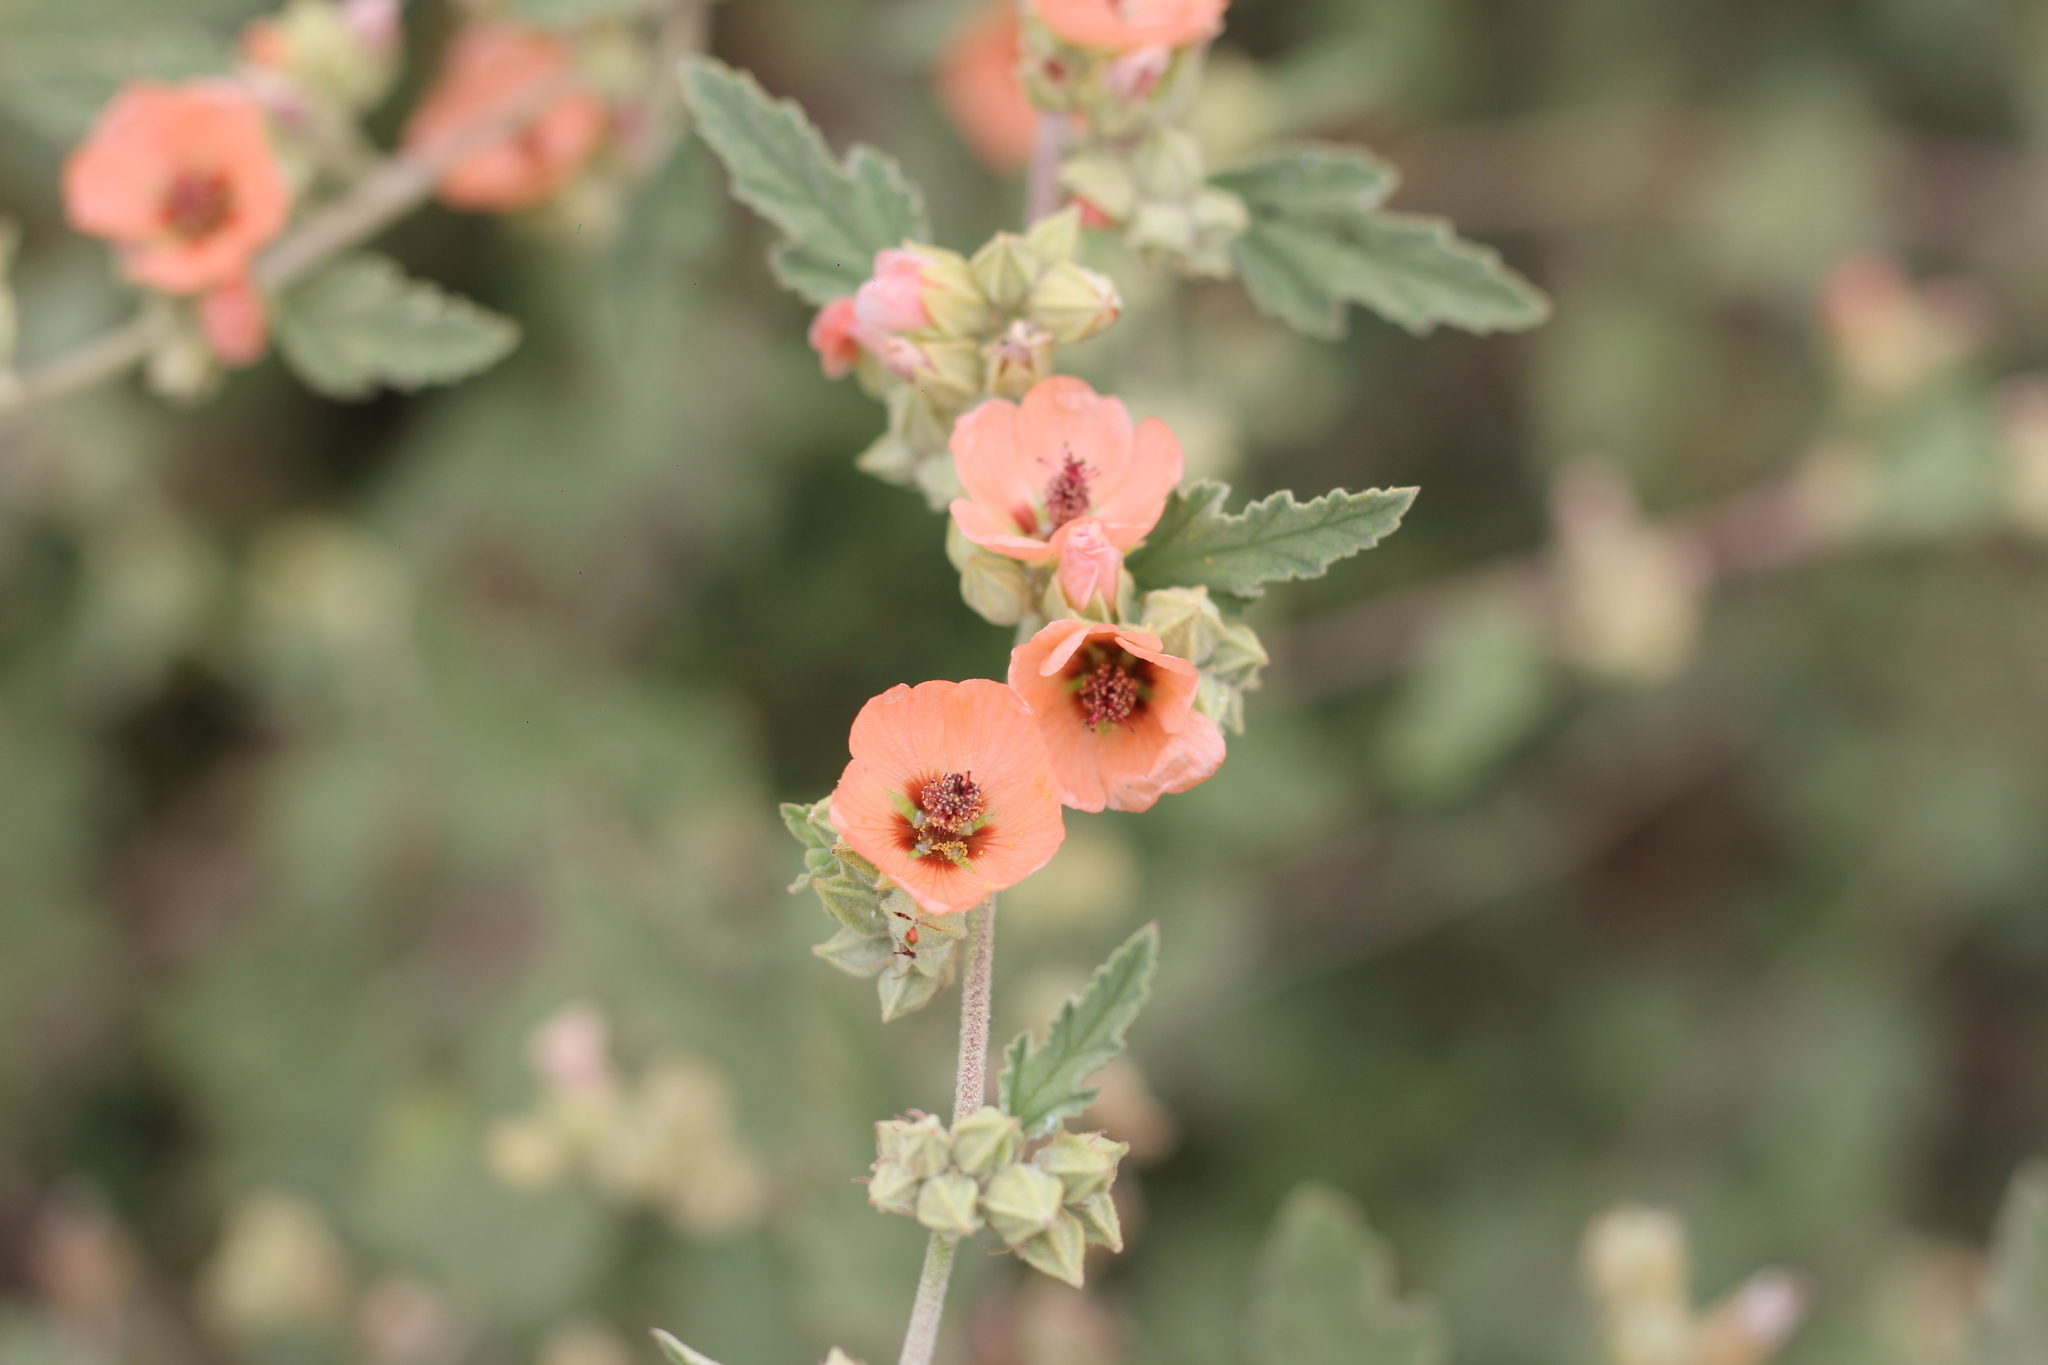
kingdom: Plantae
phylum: Tracheophyta
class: Magnoliopsida
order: Malvales
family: Malvaceae
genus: Sphaeralcea
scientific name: Sphaeralcea bonariensis
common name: Latin globemallow
